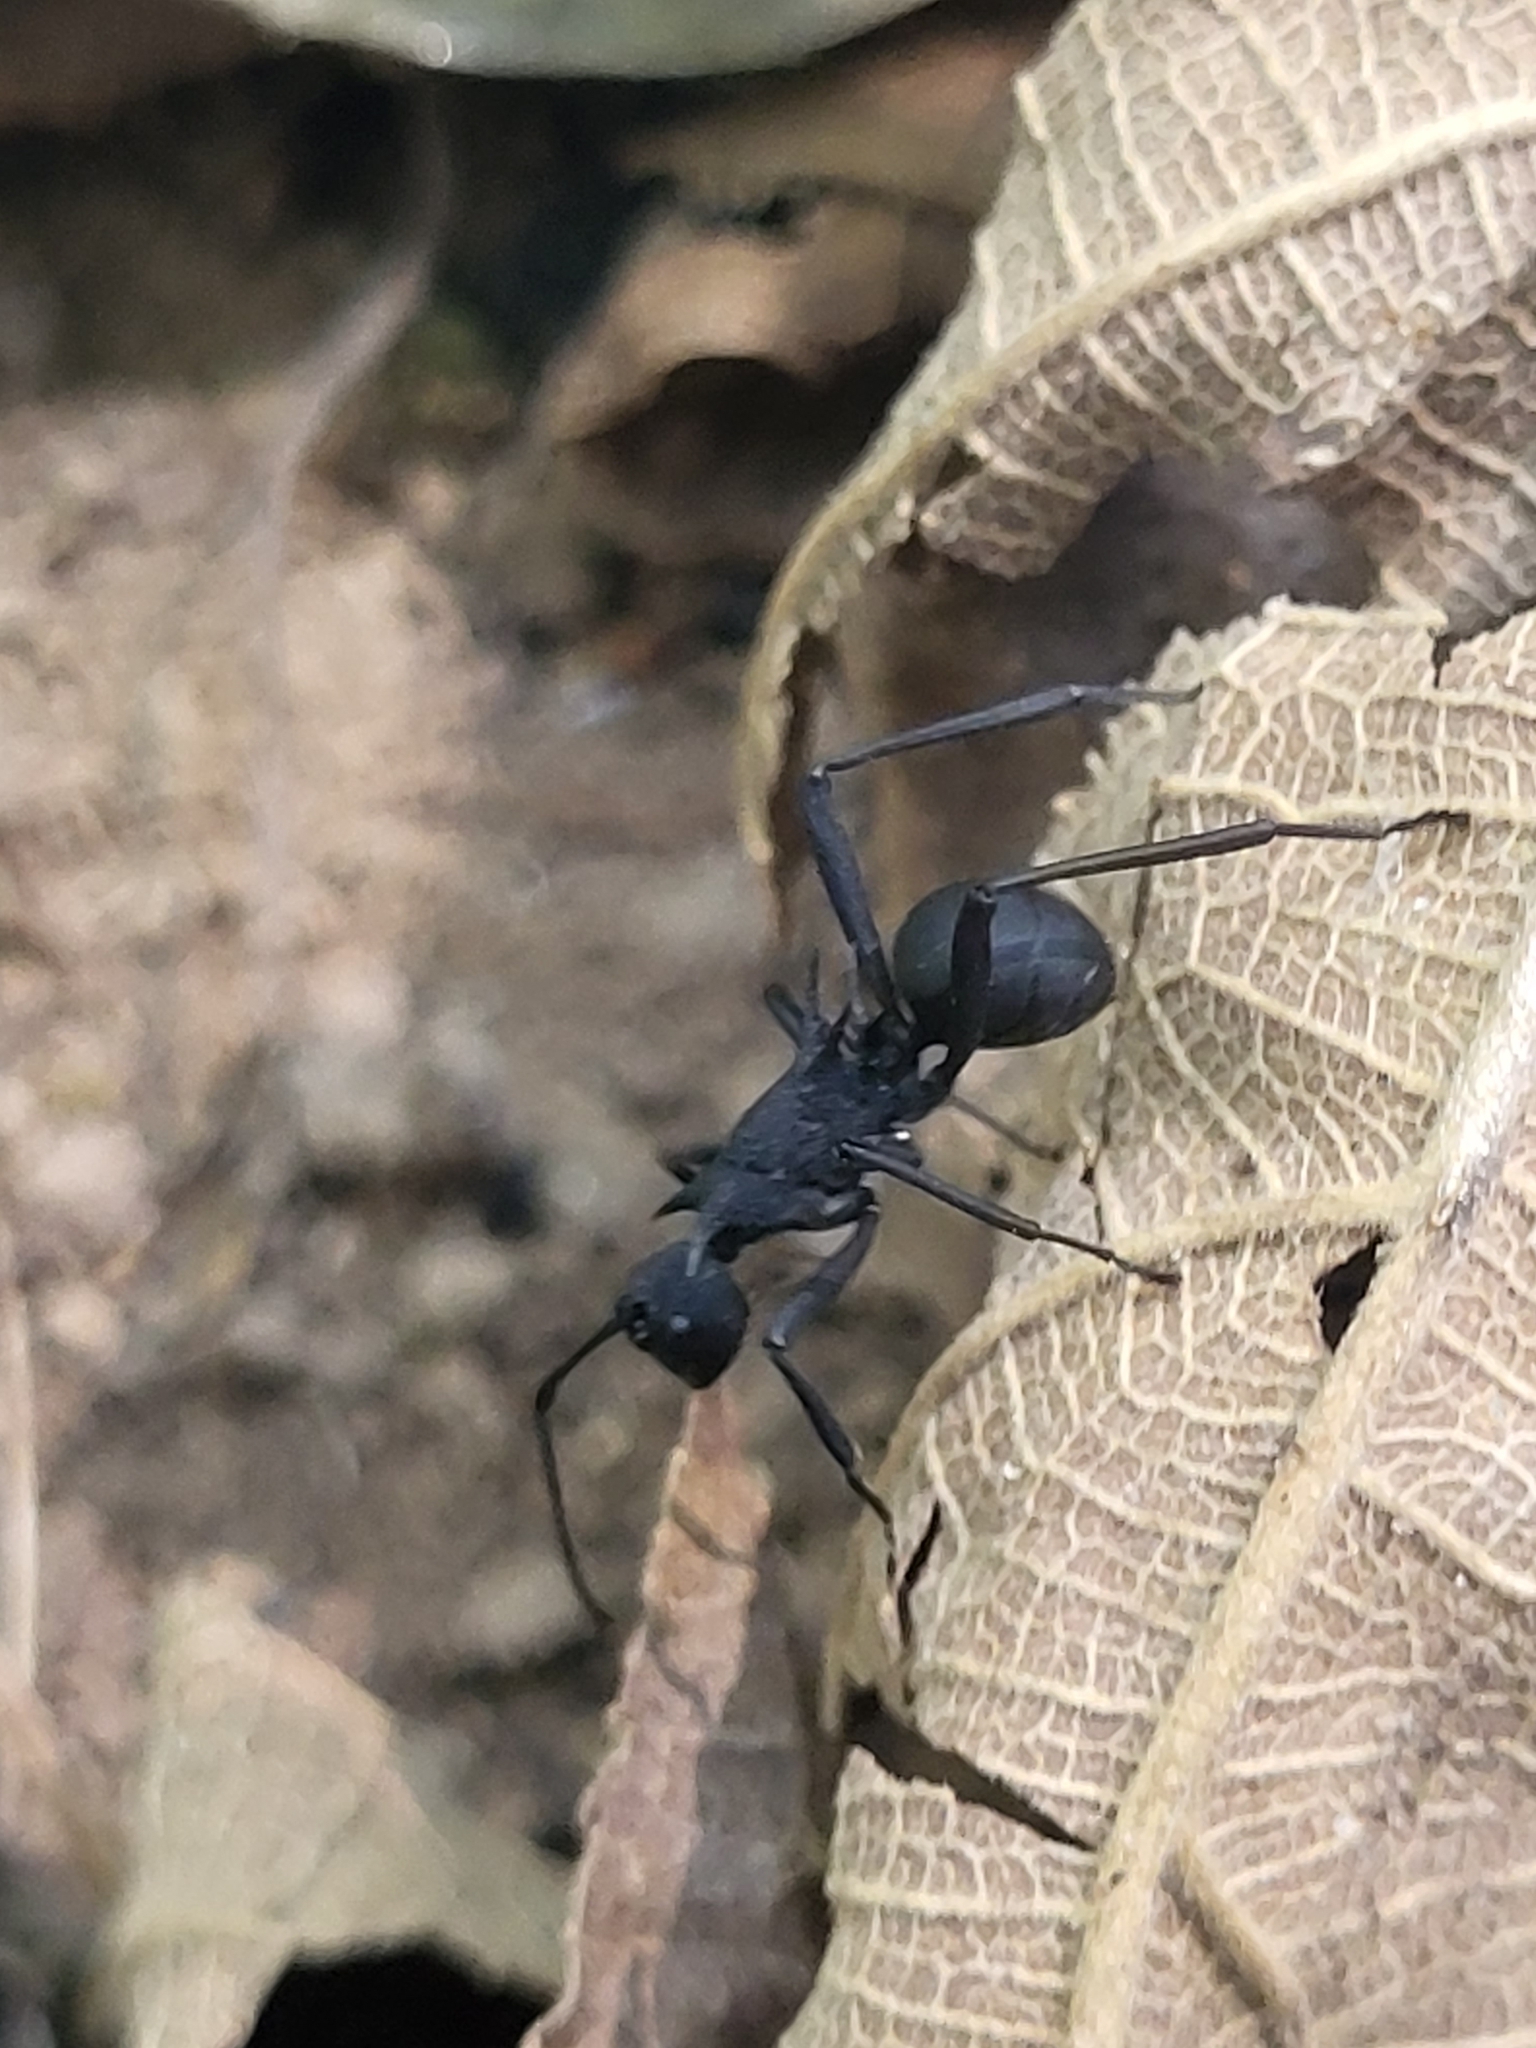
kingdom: Animalia
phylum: Arthropoda
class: Insecta
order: Hymenoptera
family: Formicidae
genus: Polyrhachis
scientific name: Polyrhachis armata
